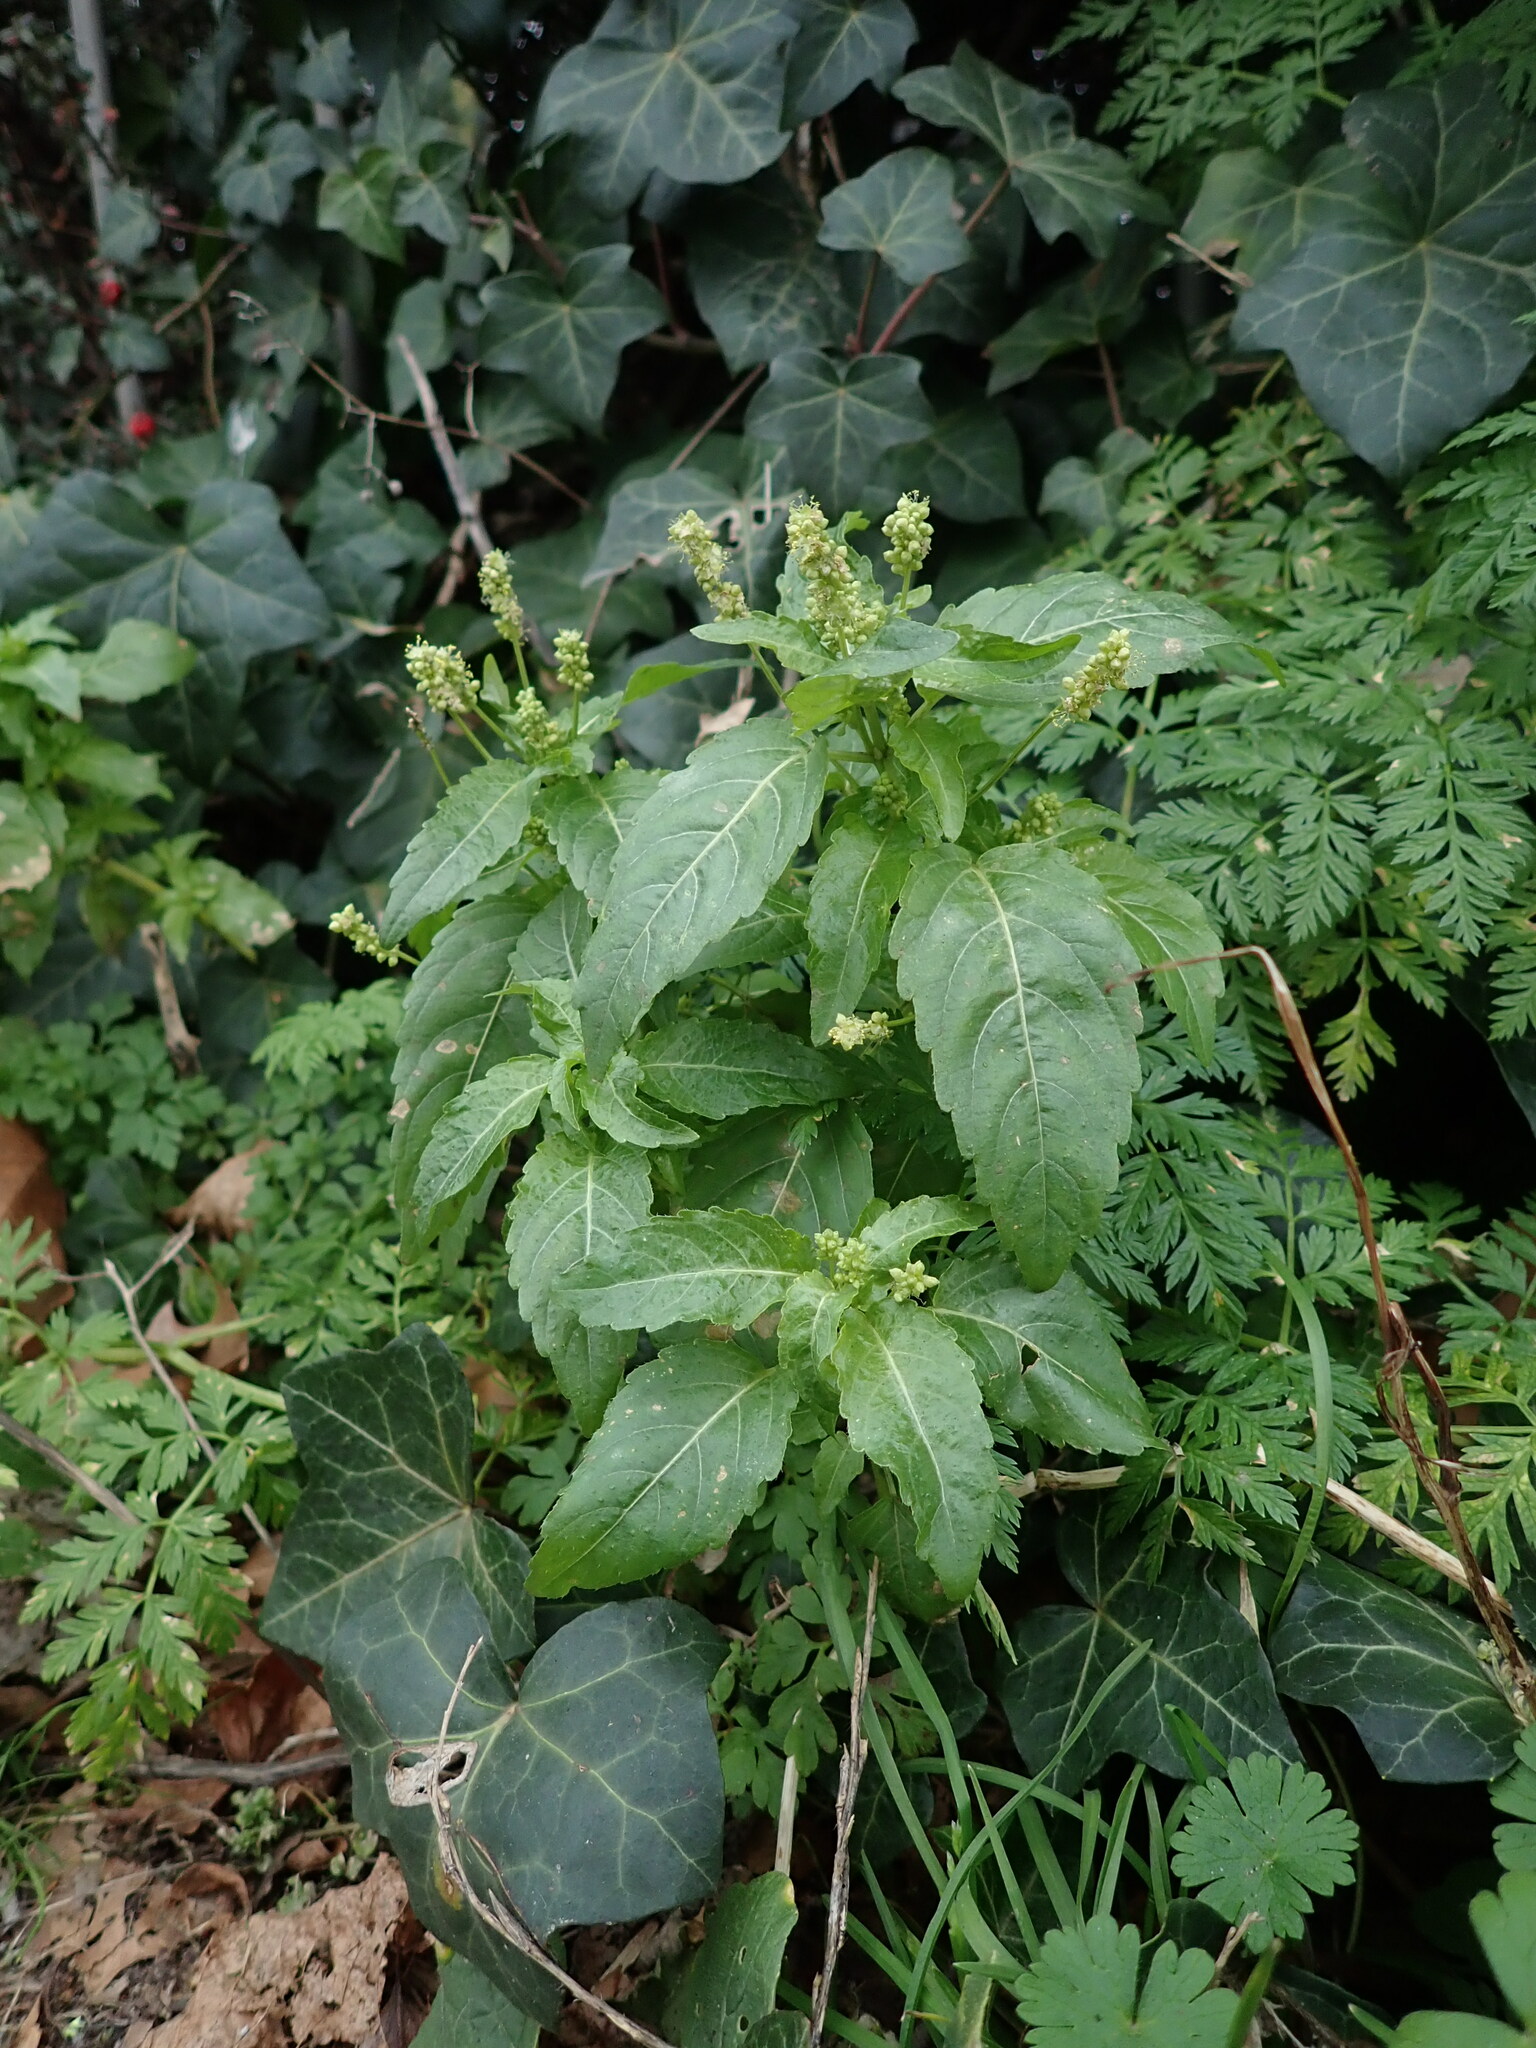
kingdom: Plantae
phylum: Tracheophyta
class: Magnoliopsida
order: Malpighiales
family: Euphorbiaceae
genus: Mercurialis
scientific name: Mercurialis annua
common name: Annual mercury
